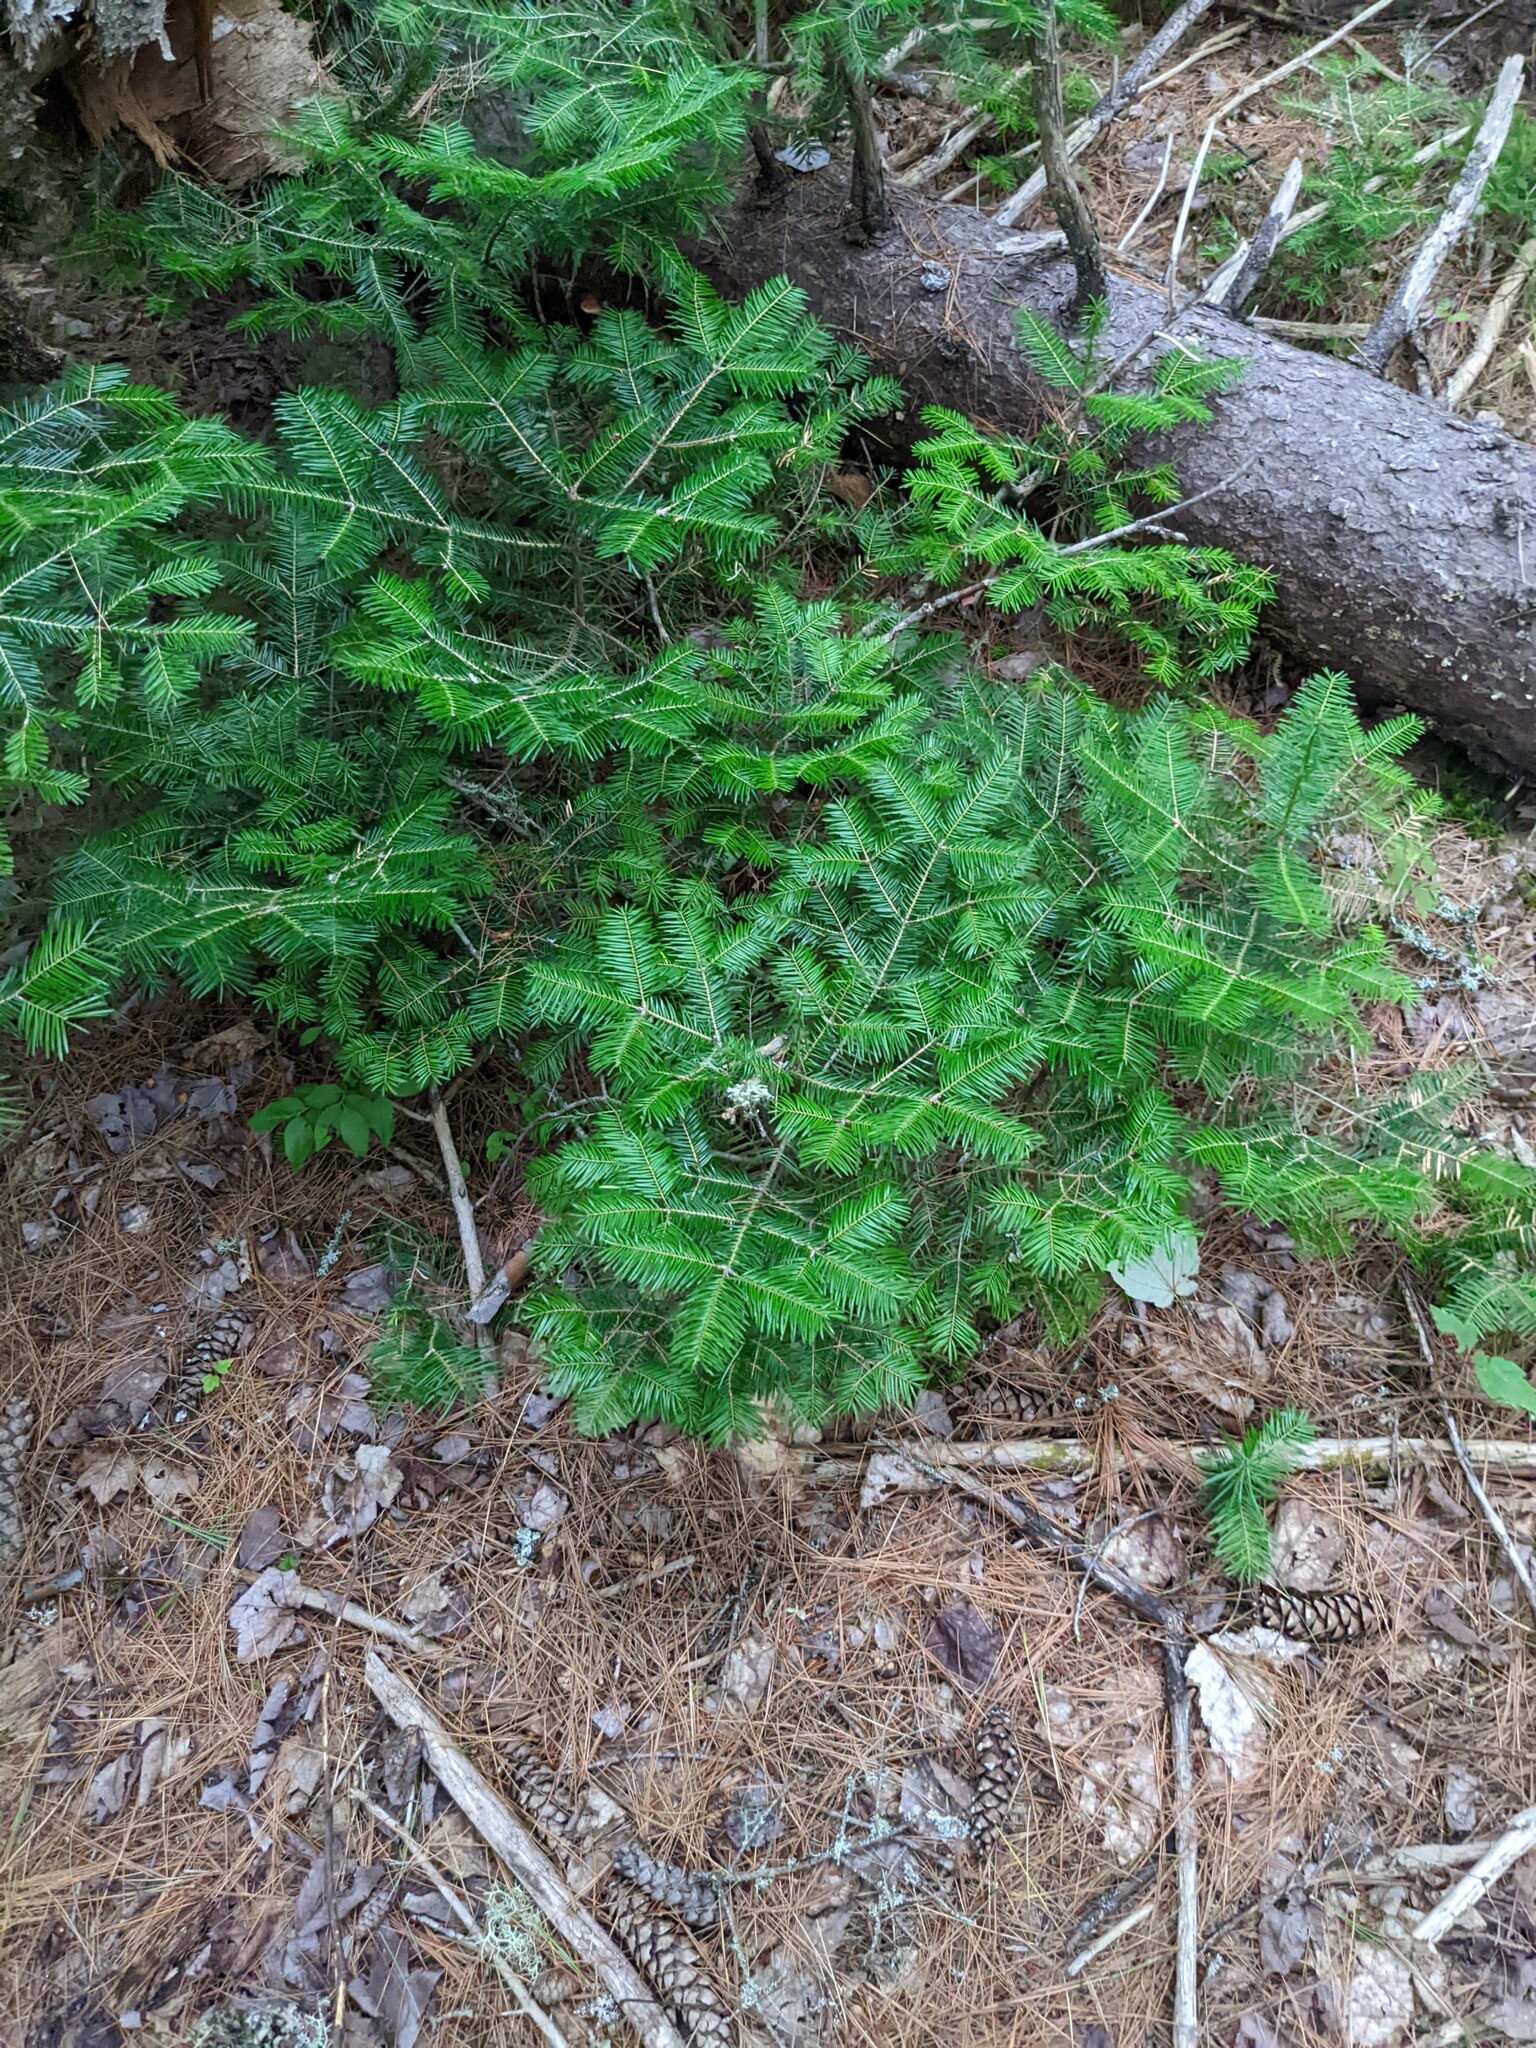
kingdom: Plantae
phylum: Tracheophyta
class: Pinopsida
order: Pinales
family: Pinaceae
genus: Abies
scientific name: Abies balsamea
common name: Balsam fir
